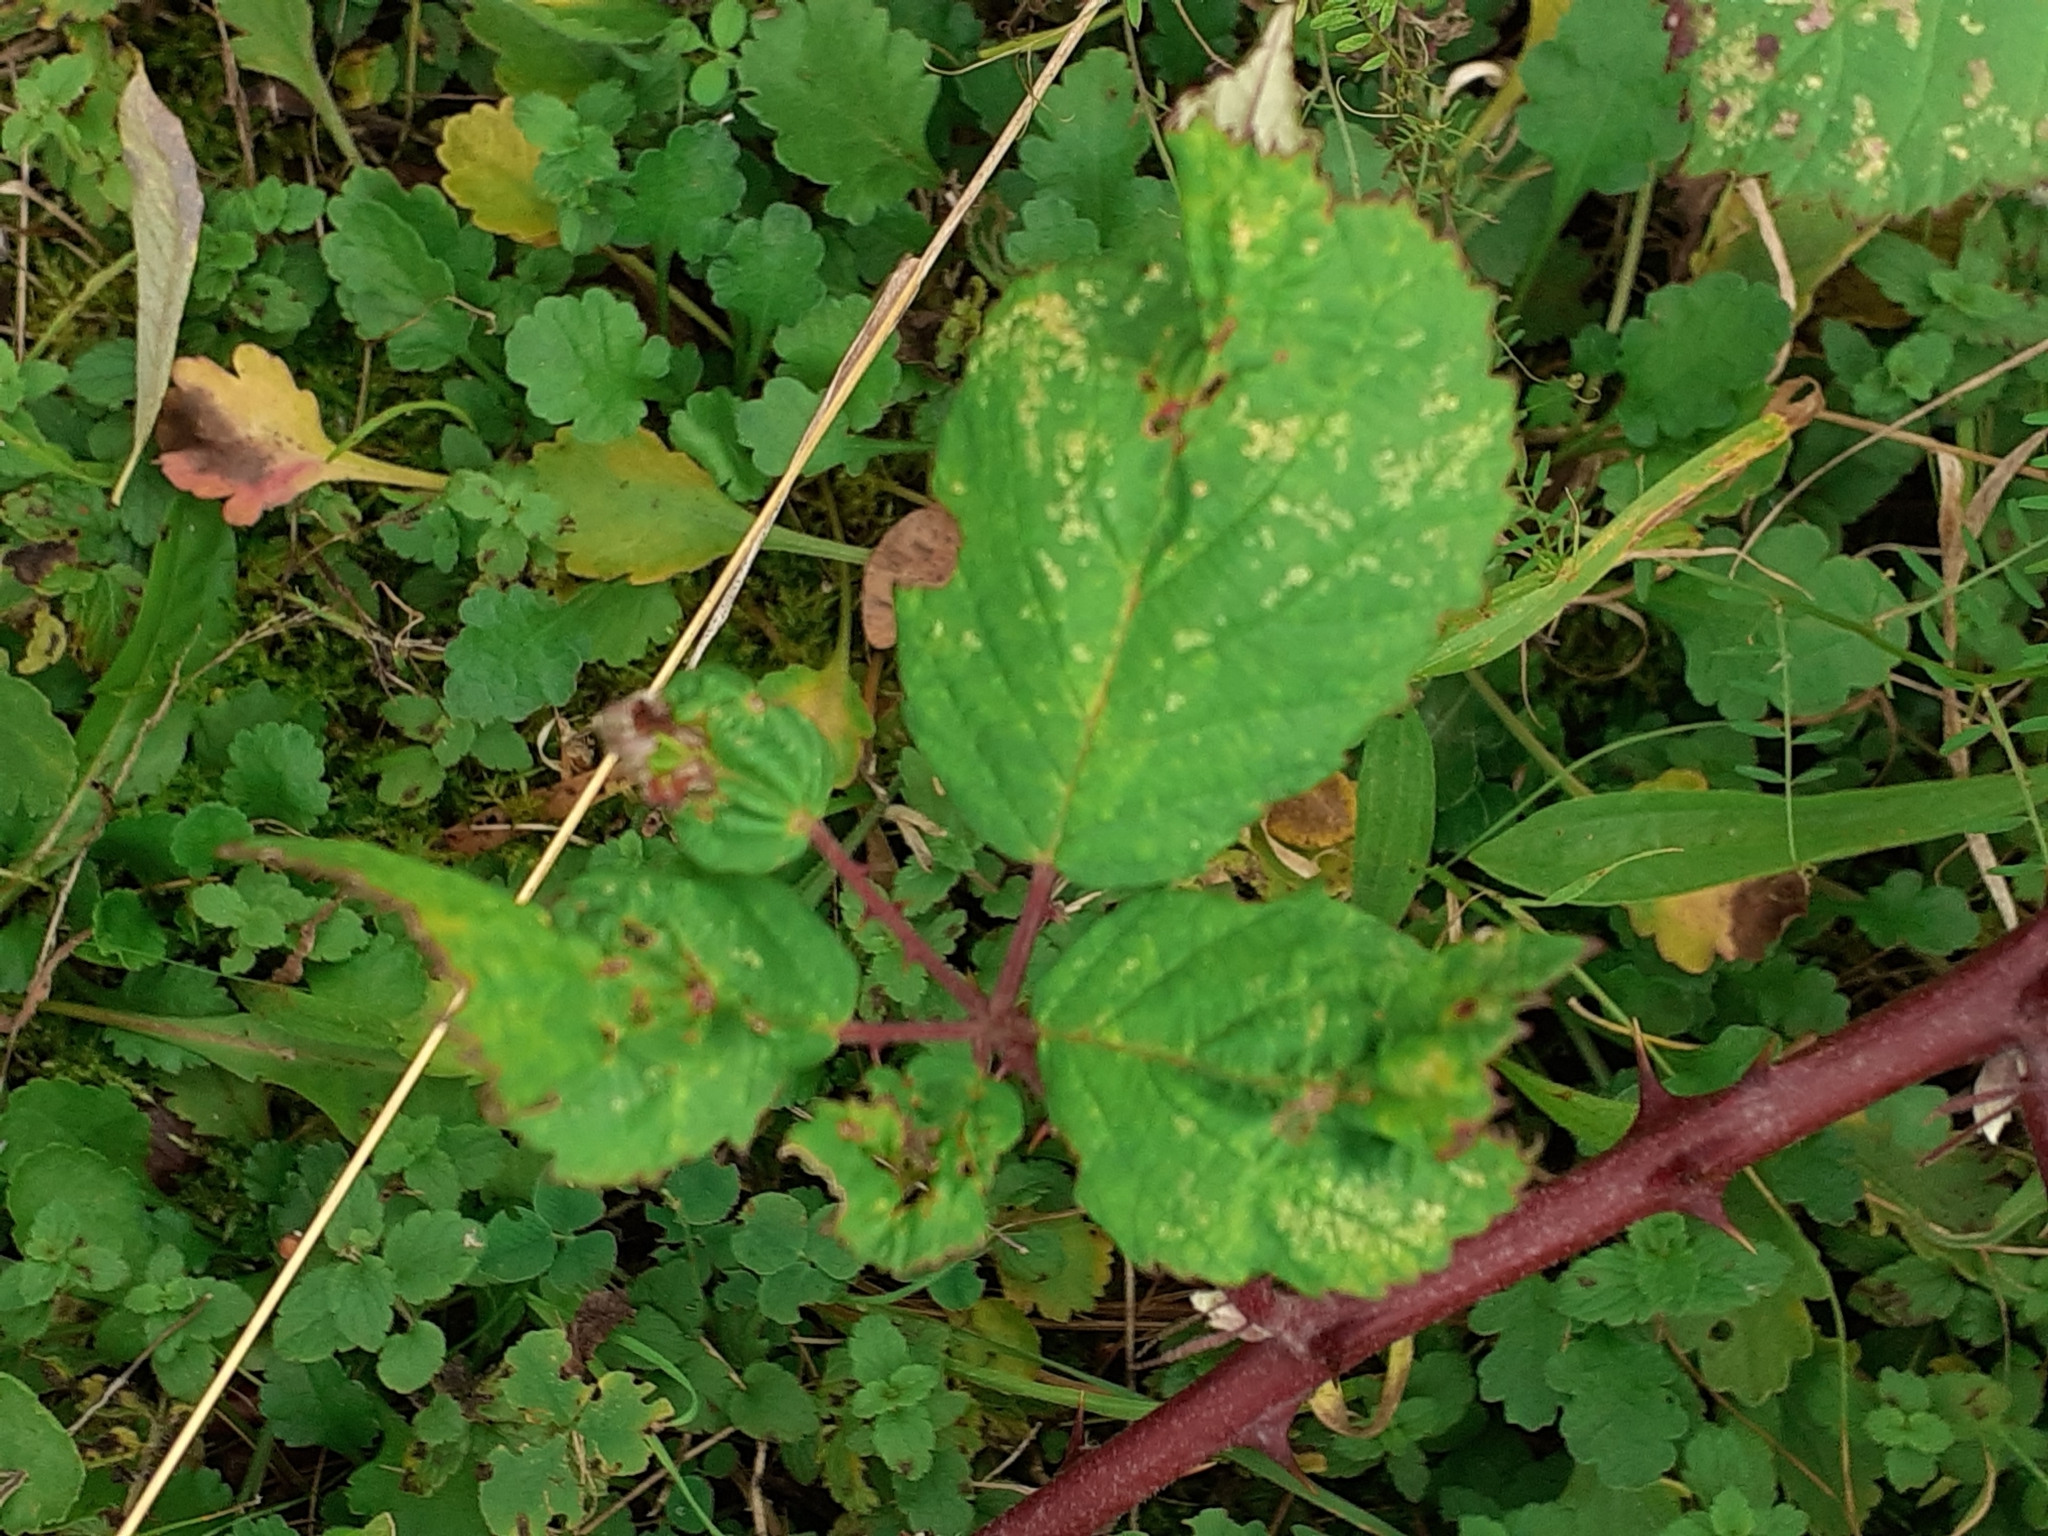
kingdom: Animalia
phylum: Arthropoda
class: Insecta
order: Diptera
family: Cecidomyiidae
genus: Dasineura
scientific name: Dasineura plicatrix
